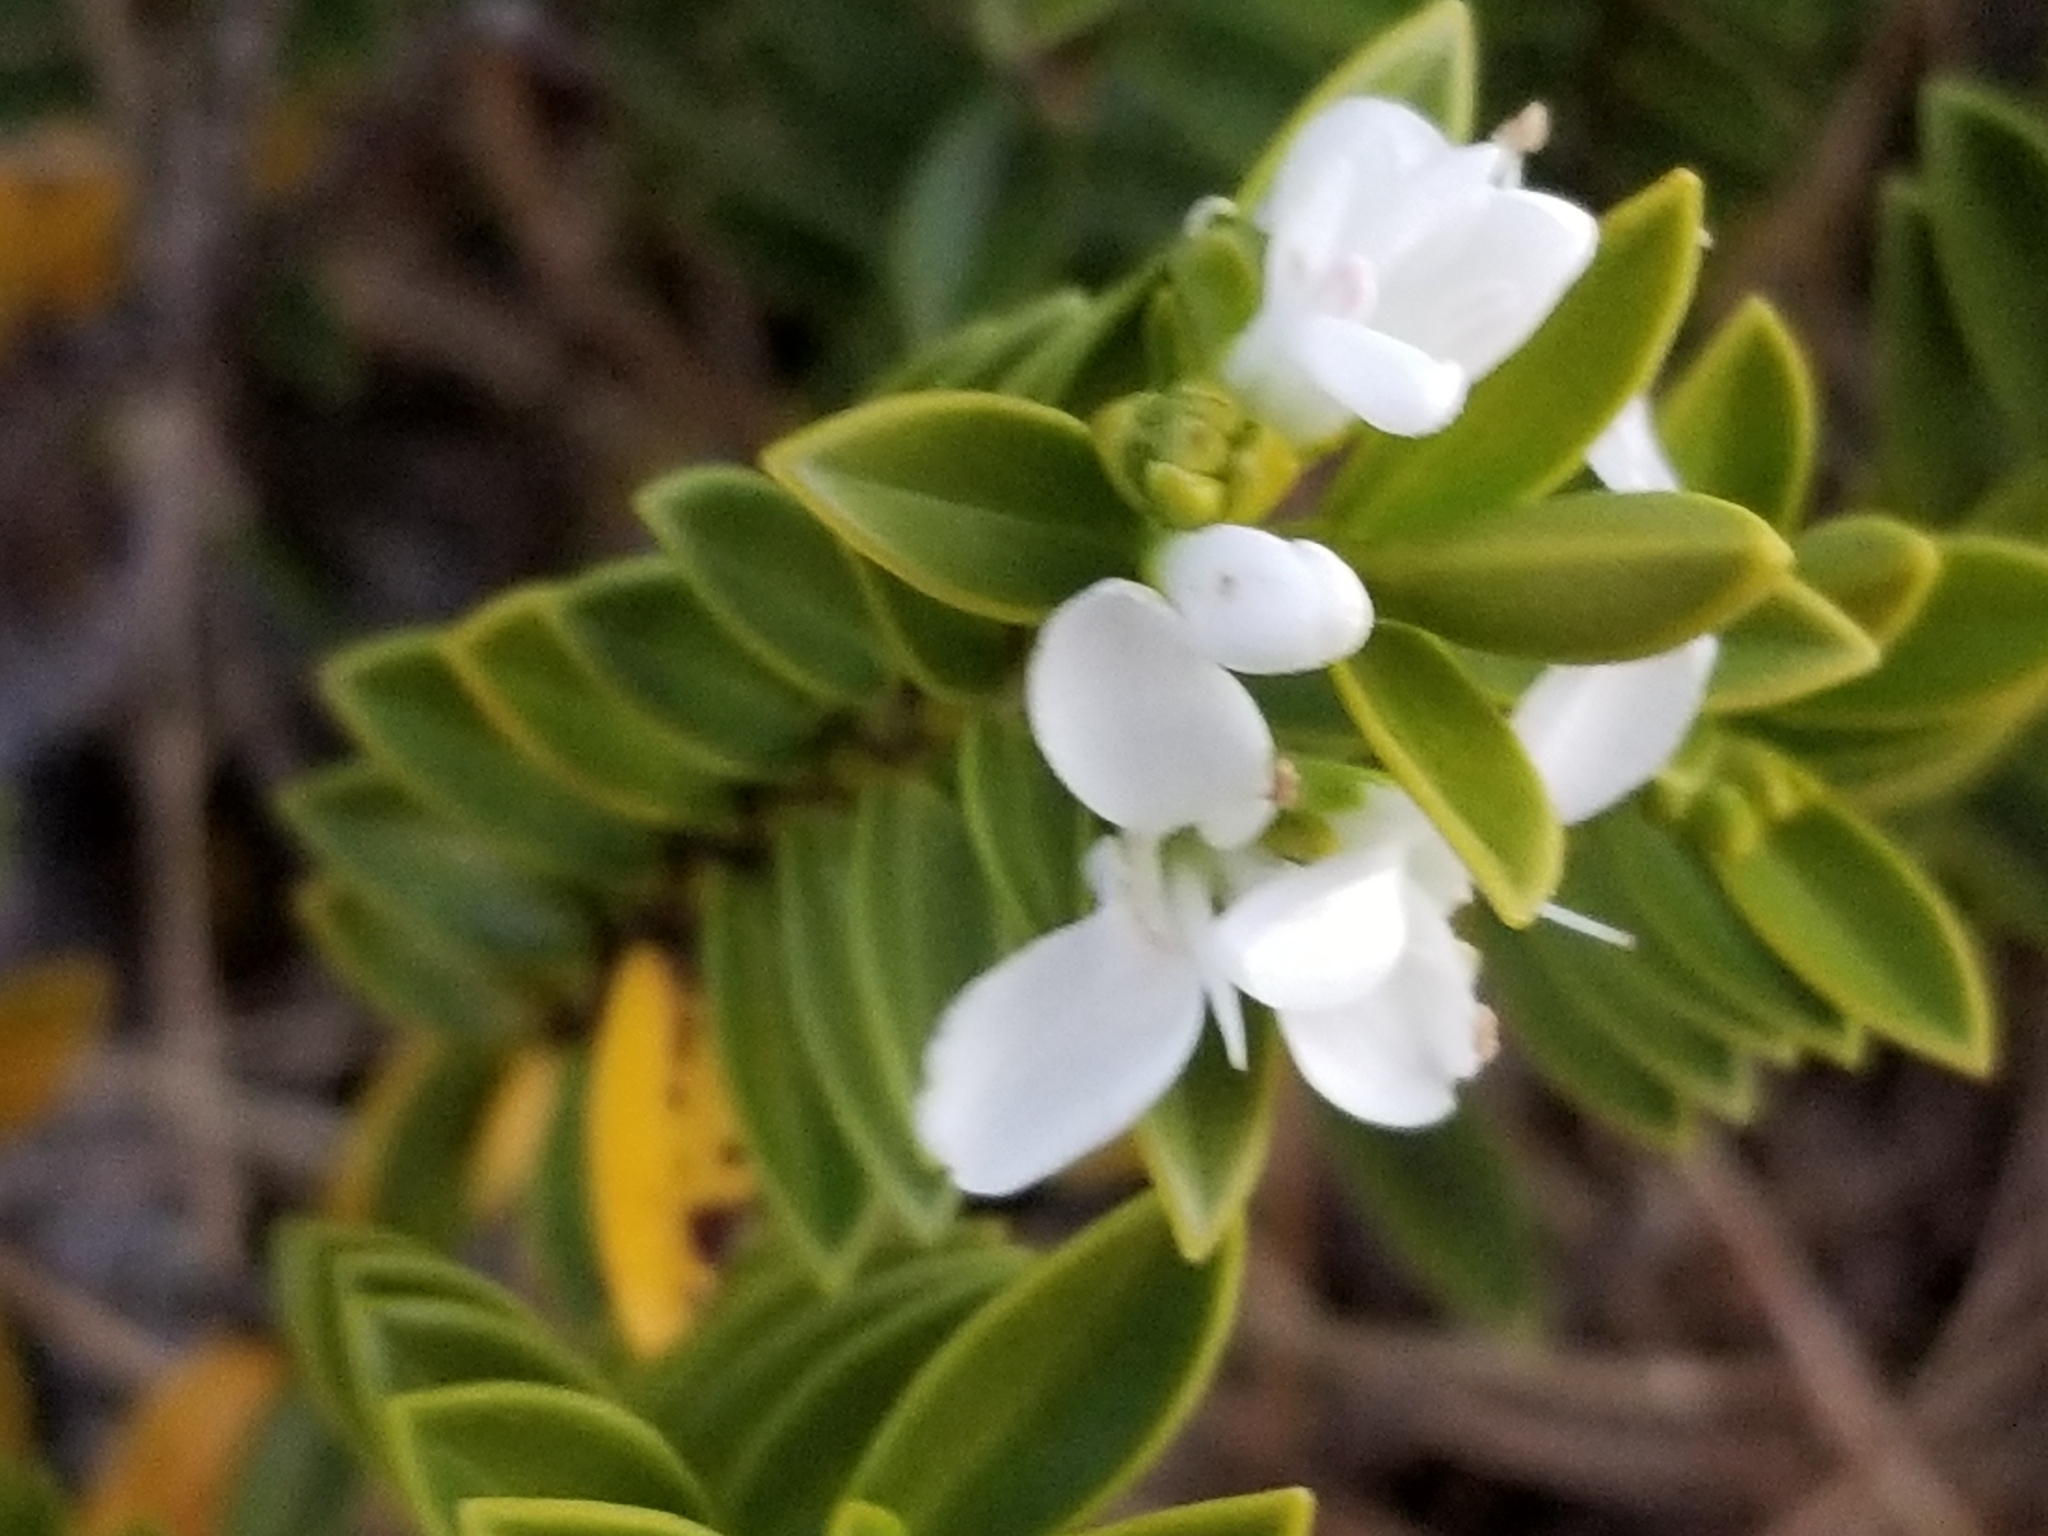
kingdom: Plantae
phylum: Tracheophyta
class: Magnoliopsida
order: Lamiales
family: Plantaginaceae
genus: Veronica
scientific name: Veronica mooreae
